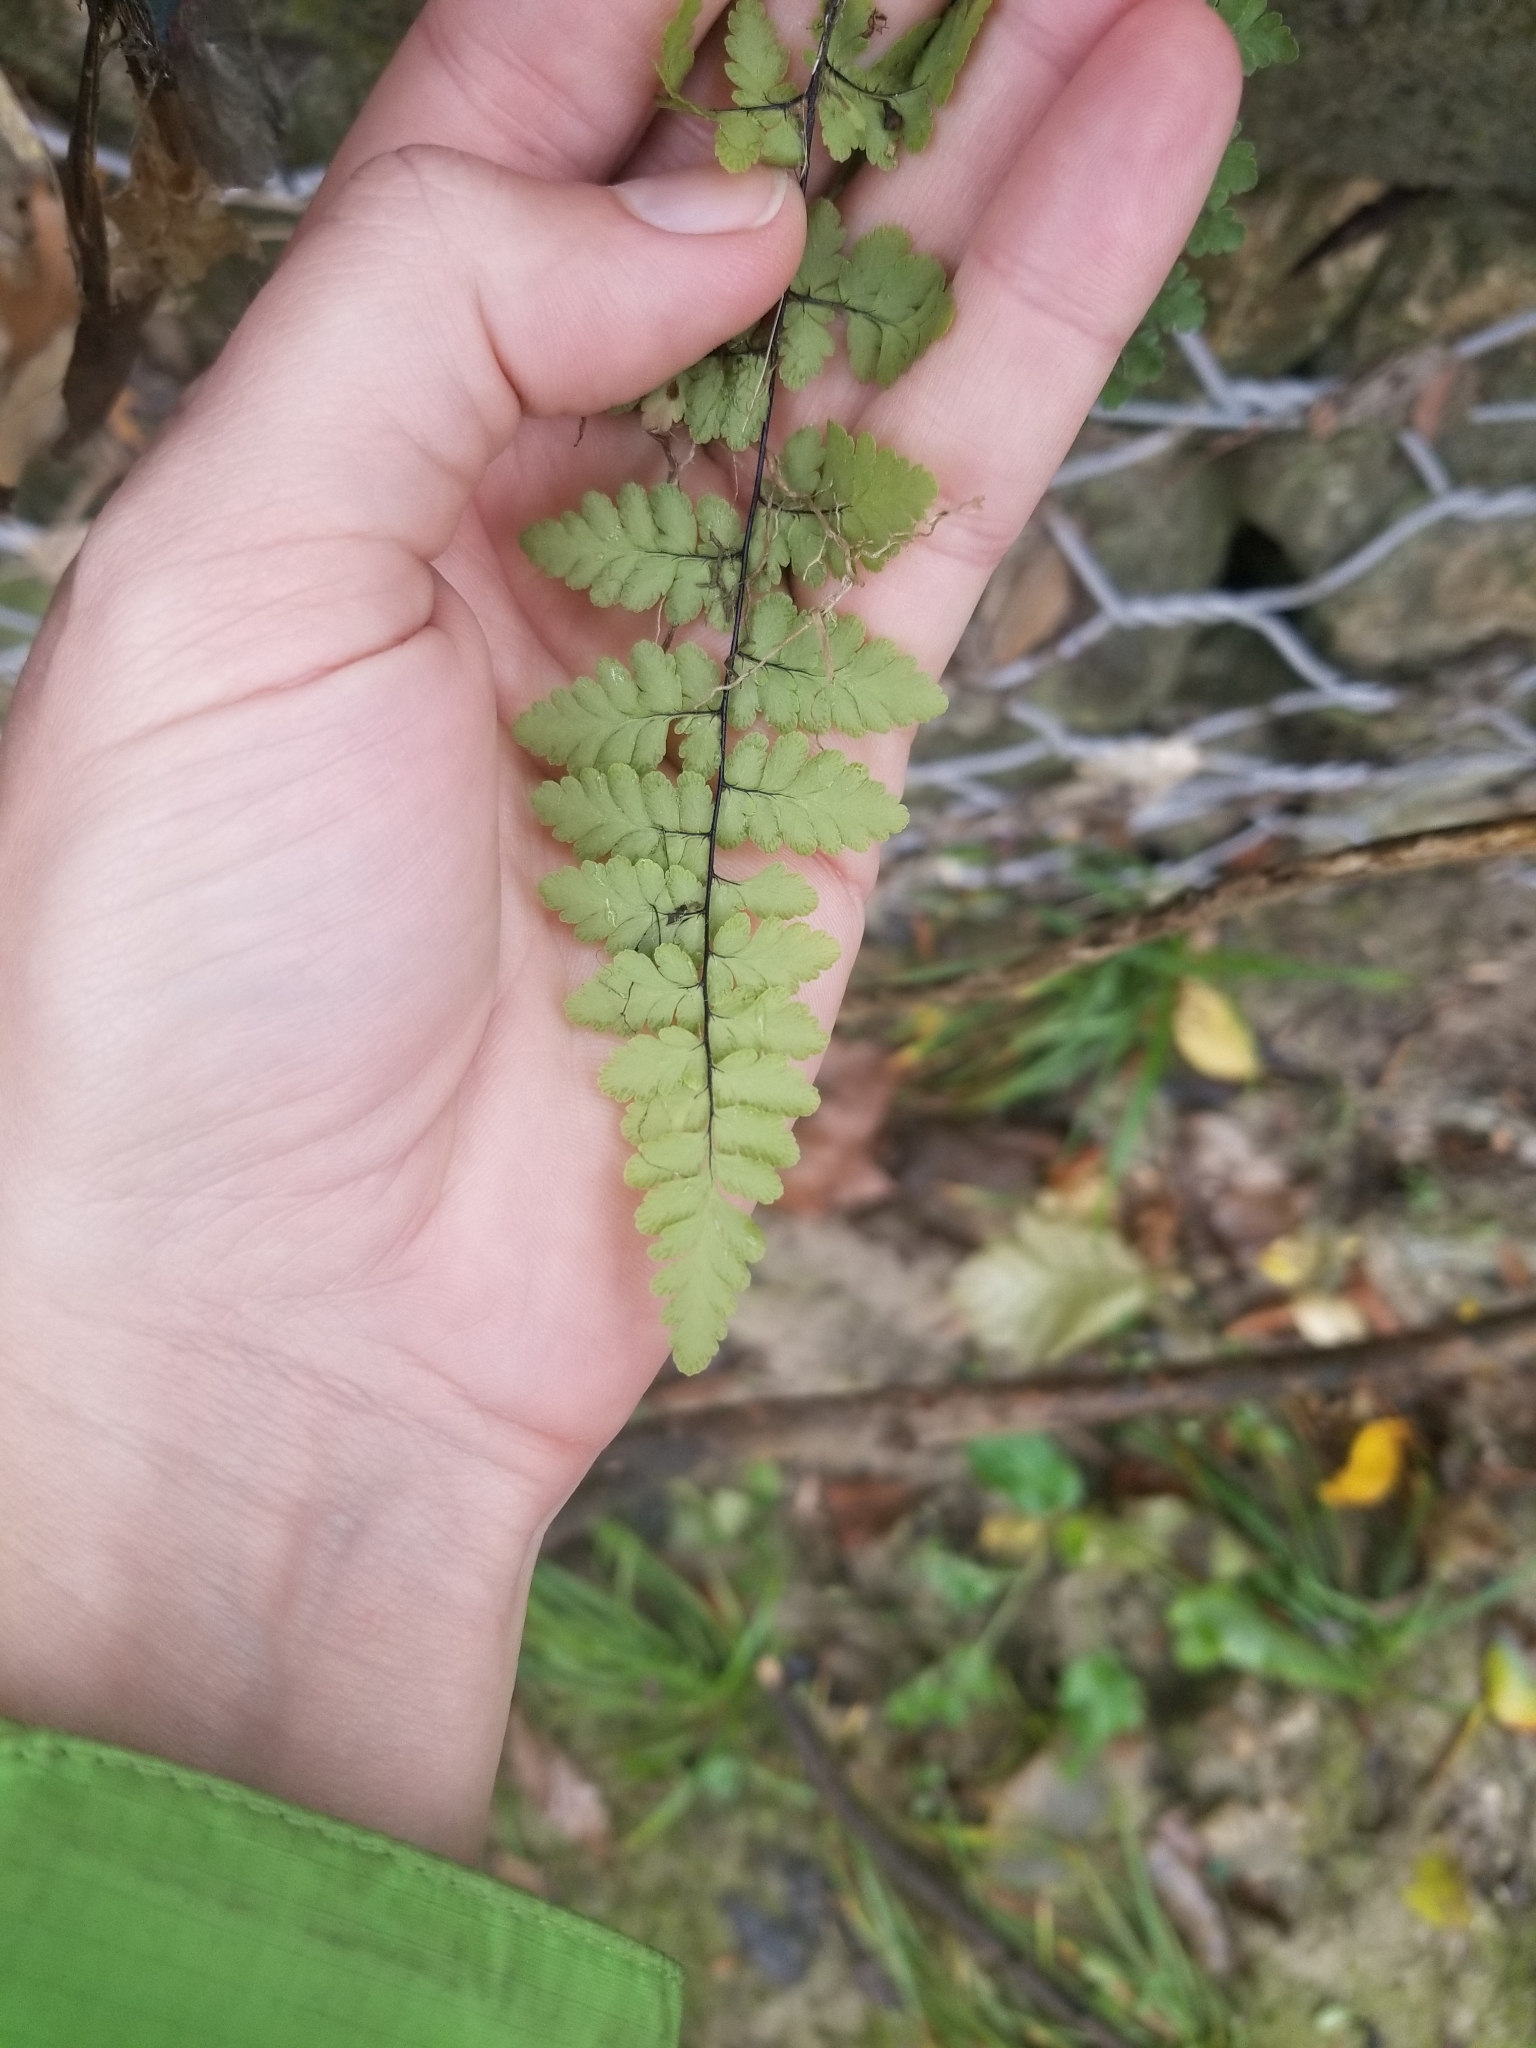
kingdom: Plantae
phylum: Tracheophyta
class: Polypodiopsida
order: Polypodiales
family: Pteridaceae
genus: Myriopteris
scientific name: Myriopteris alabamensis
